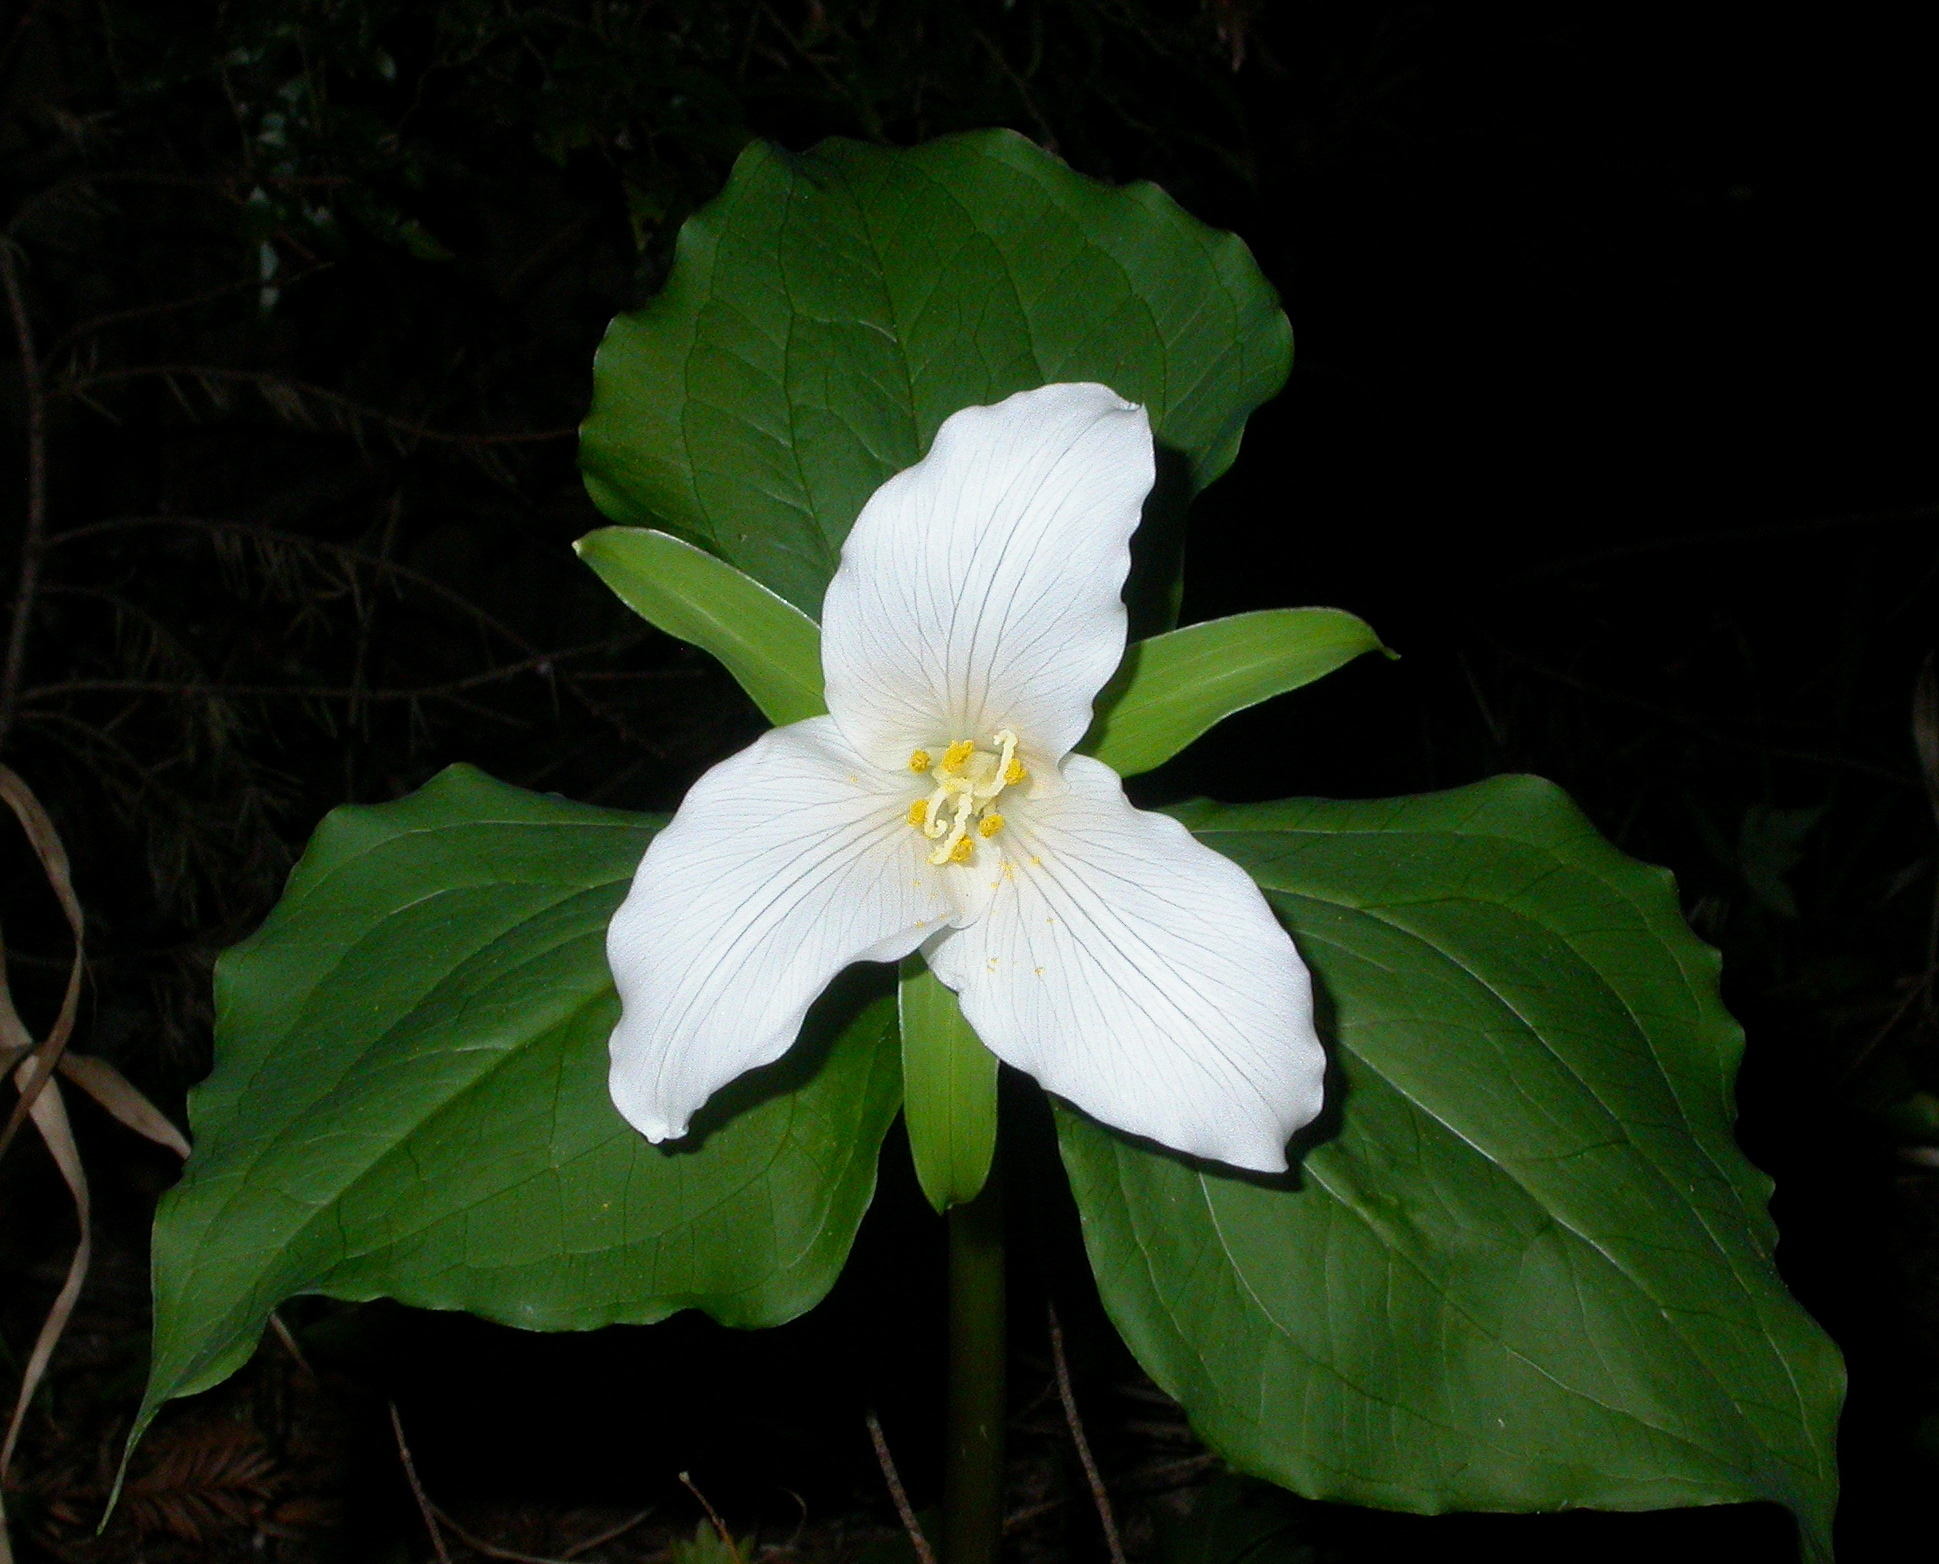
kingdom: Plantae
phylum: Tracheophyta
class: Liliopsida
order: Liliales
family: Melanthiaceae
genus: Trillium
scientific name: Trillium ovatum
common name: Pacific trillium
